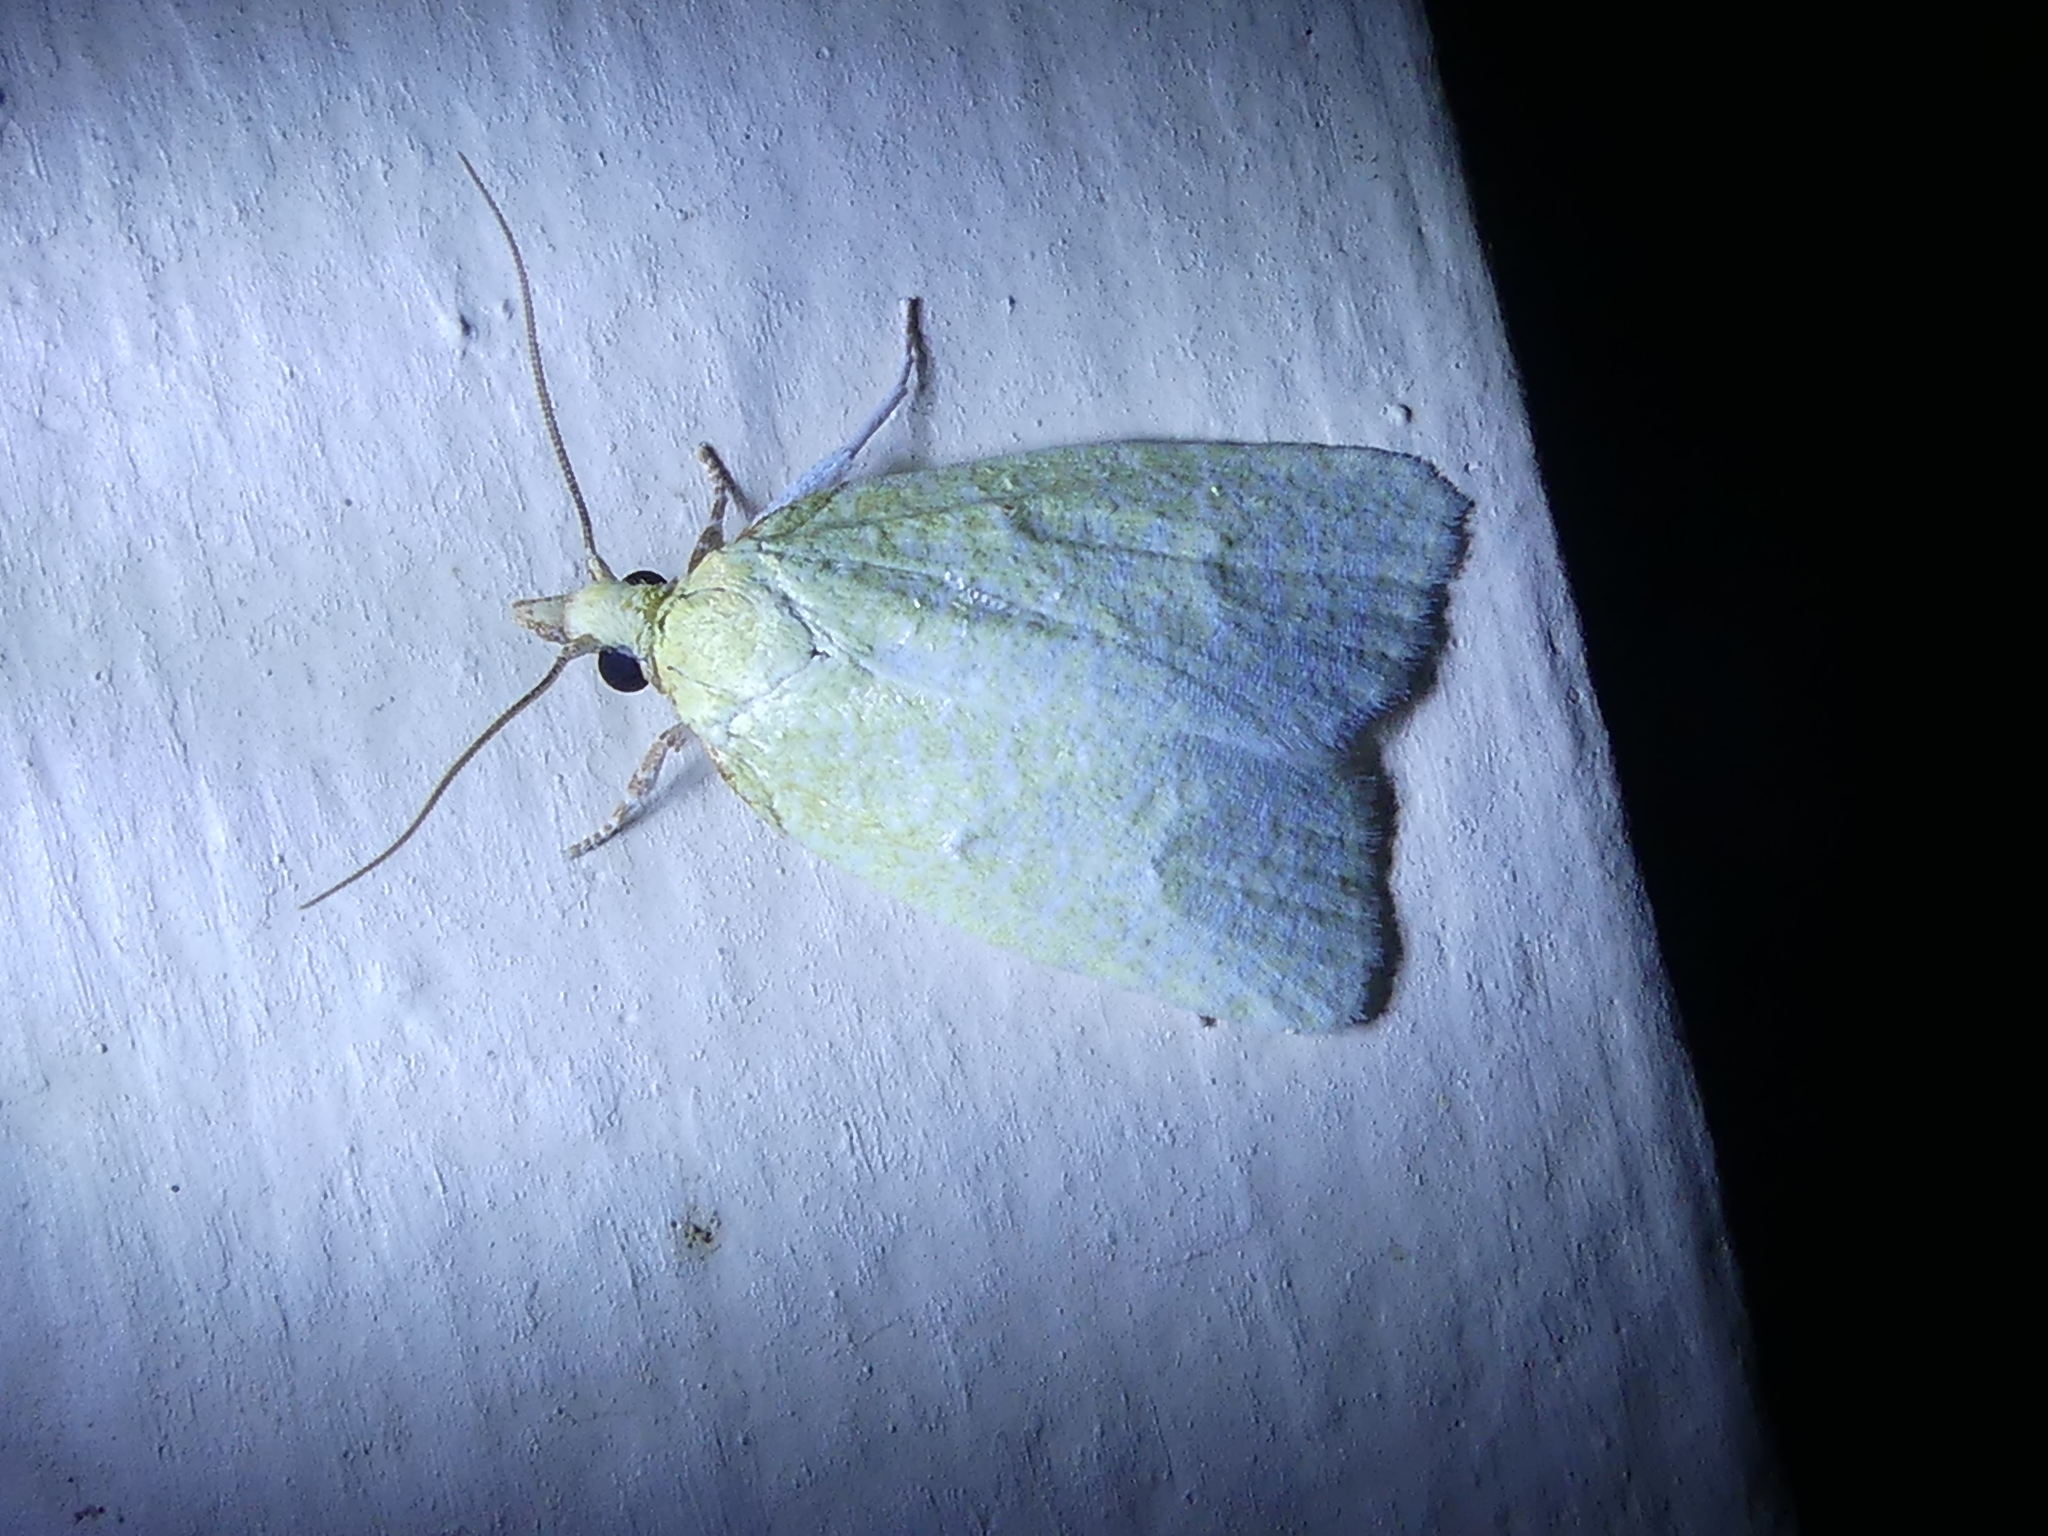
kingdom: Animalia
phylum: Arthropoda
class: Insecta
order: Lepidoptera
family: Tortricidae
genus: Cenopis
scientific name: Cenopis pettitana
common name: Maple-basswood leafroller moth
